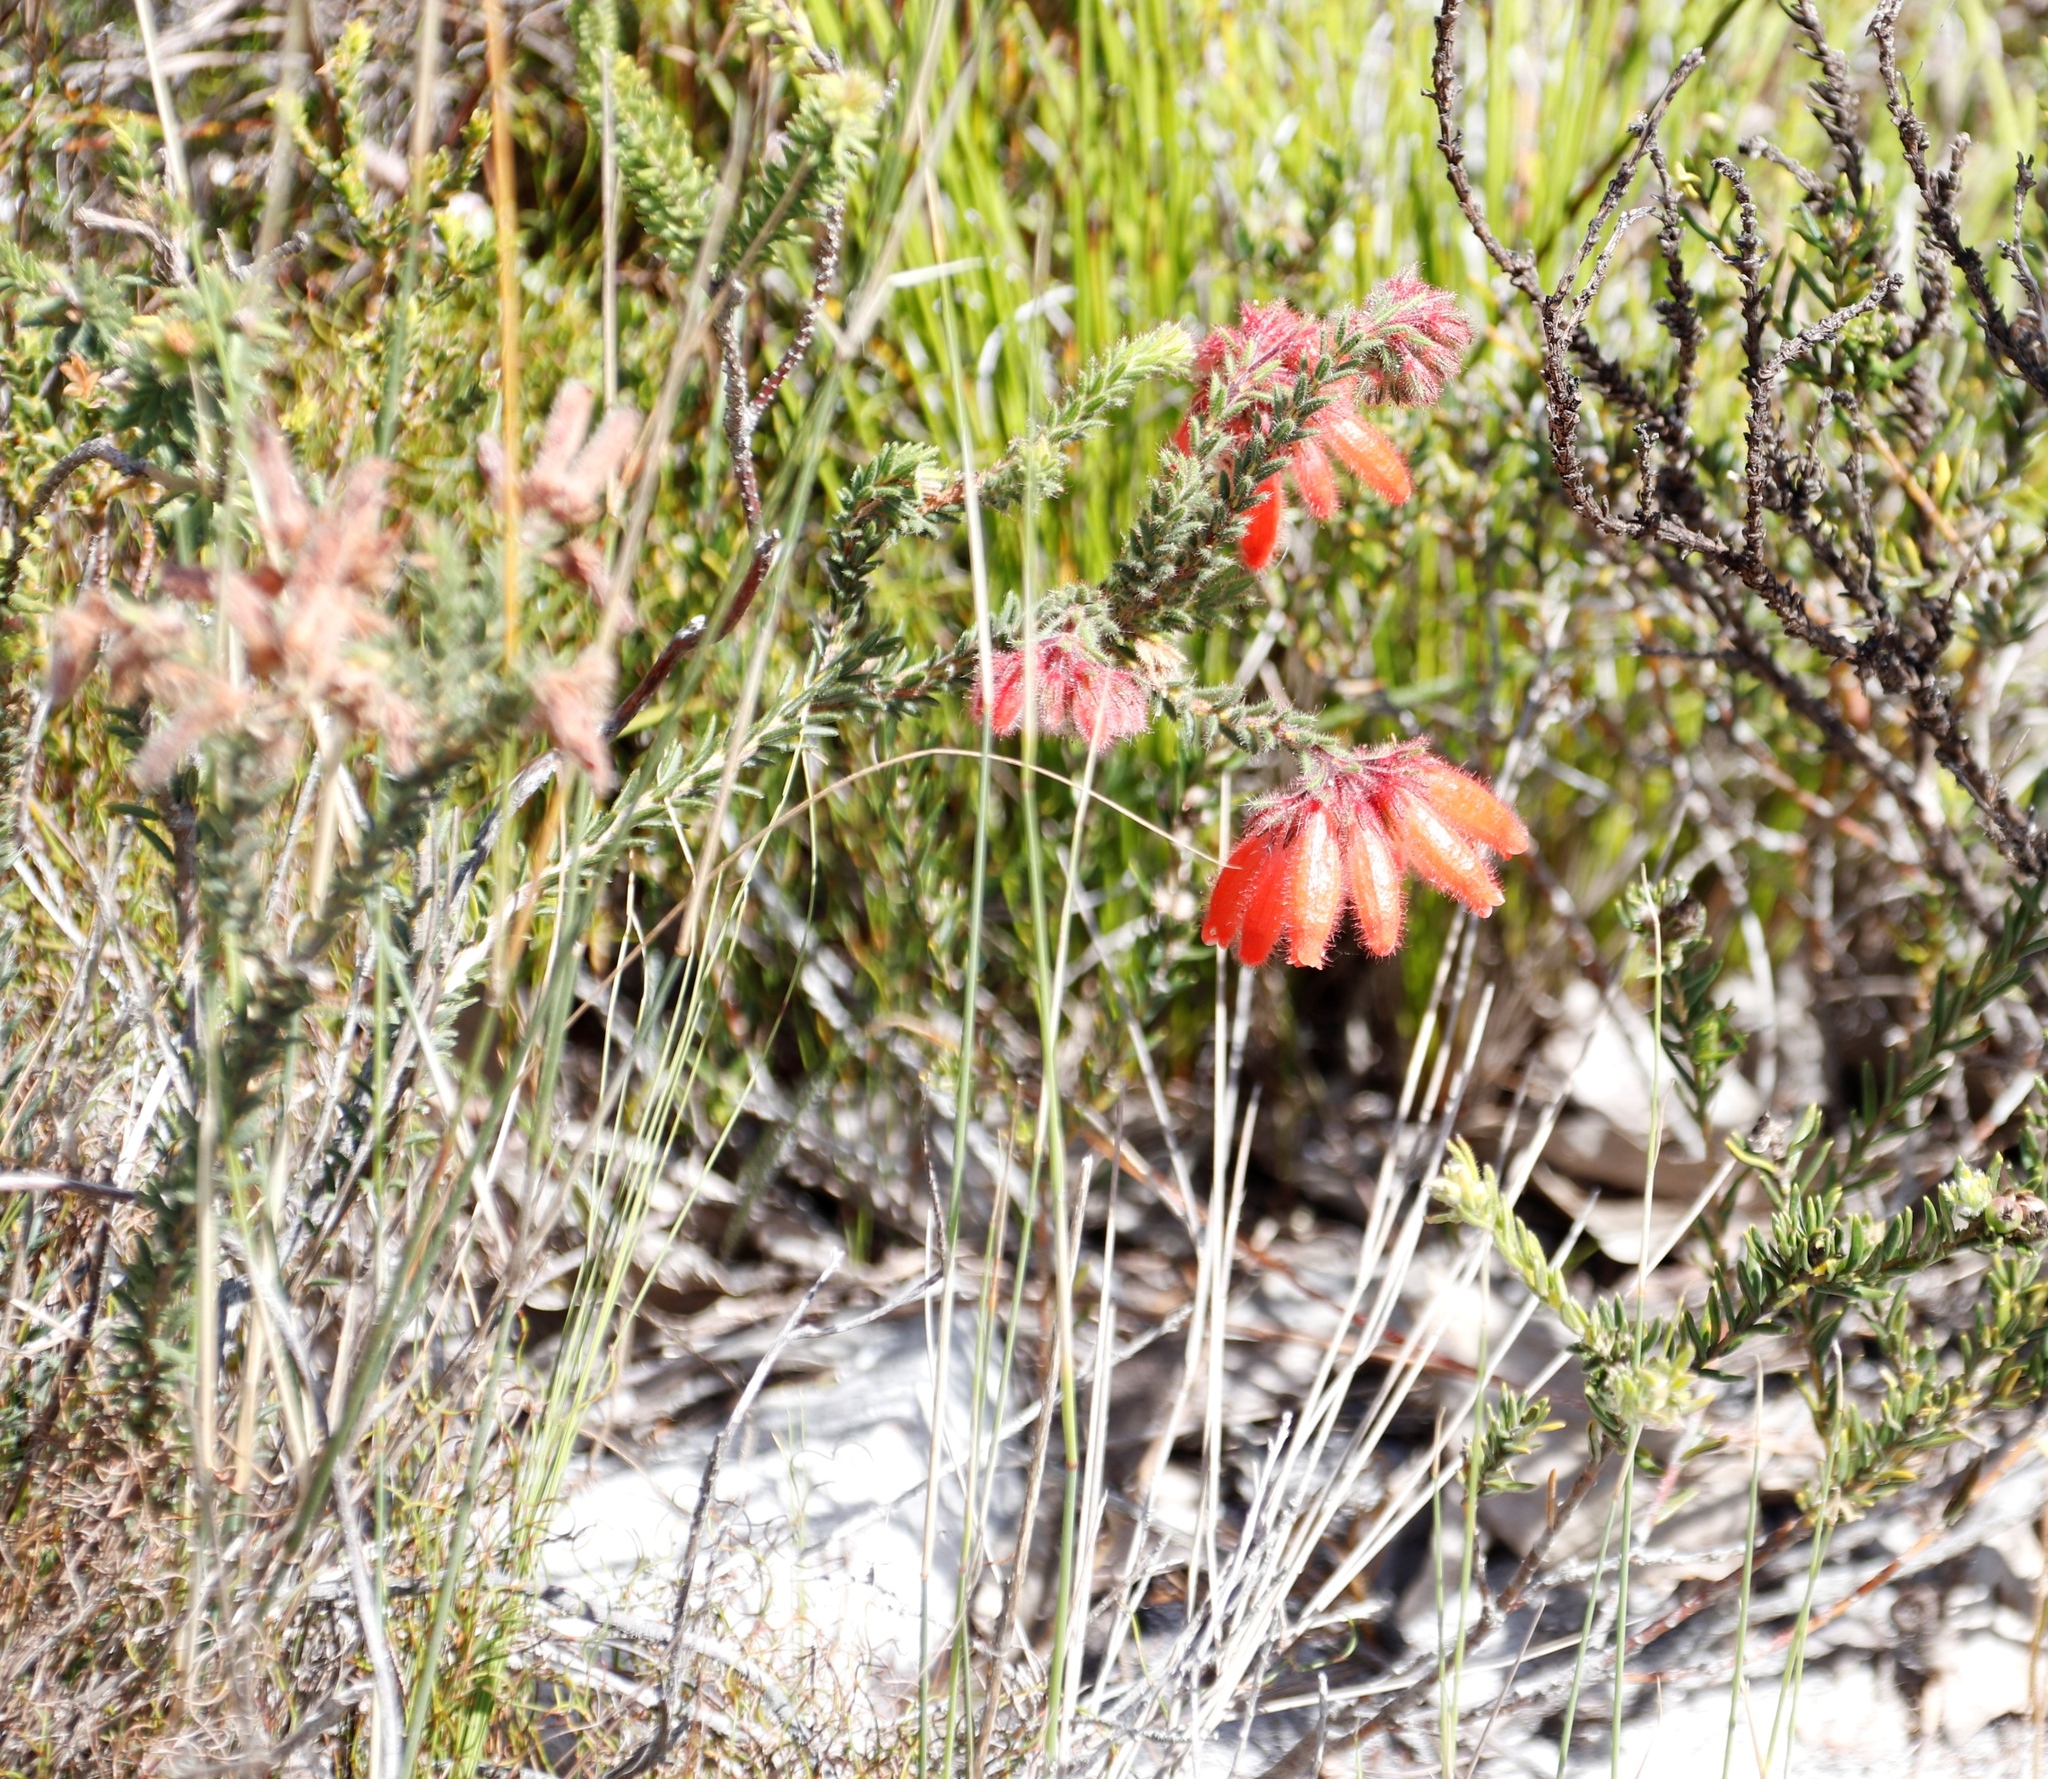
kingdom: Plantae
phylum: Tracheophyta
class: Magnoliopsida
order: Ericales
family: Ericaceae
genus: Erica
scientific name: Erica cerinthoides
